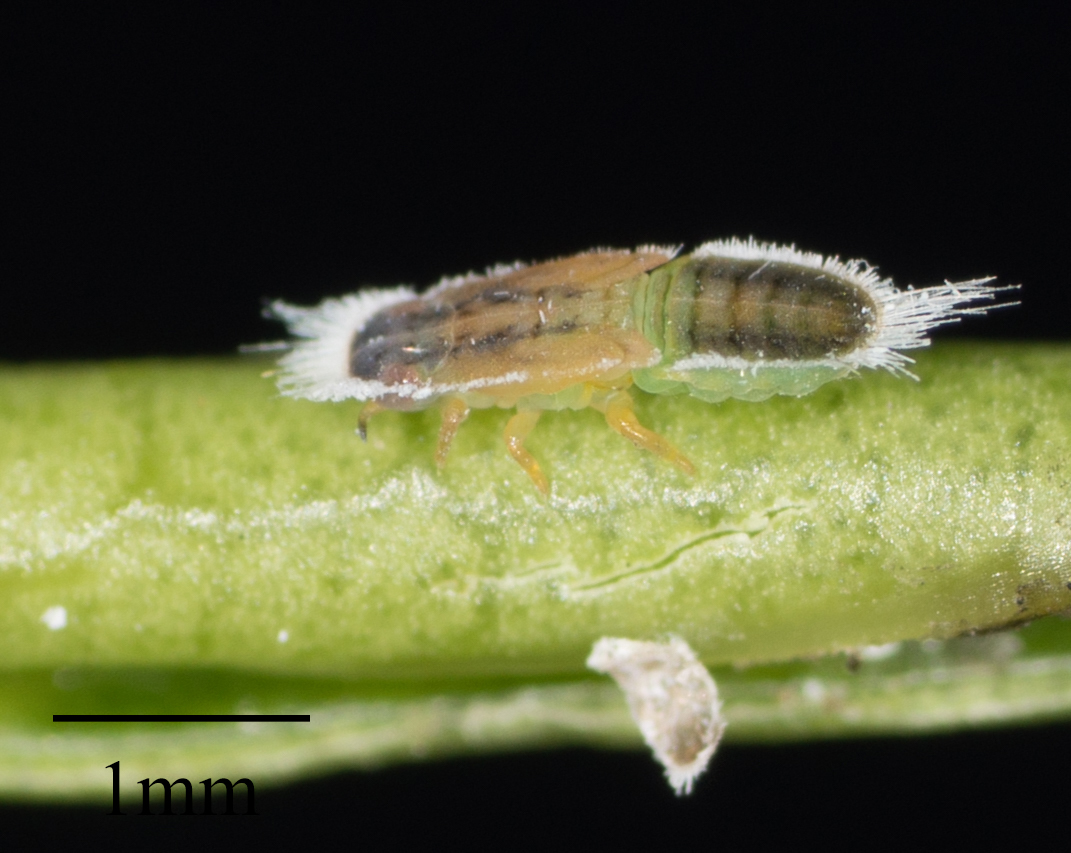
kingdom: Animalia
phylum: Arthropoda
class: Insecta
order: Hemiptera
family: Triozidae
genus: Trioza
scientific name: Trioza brevigenae
